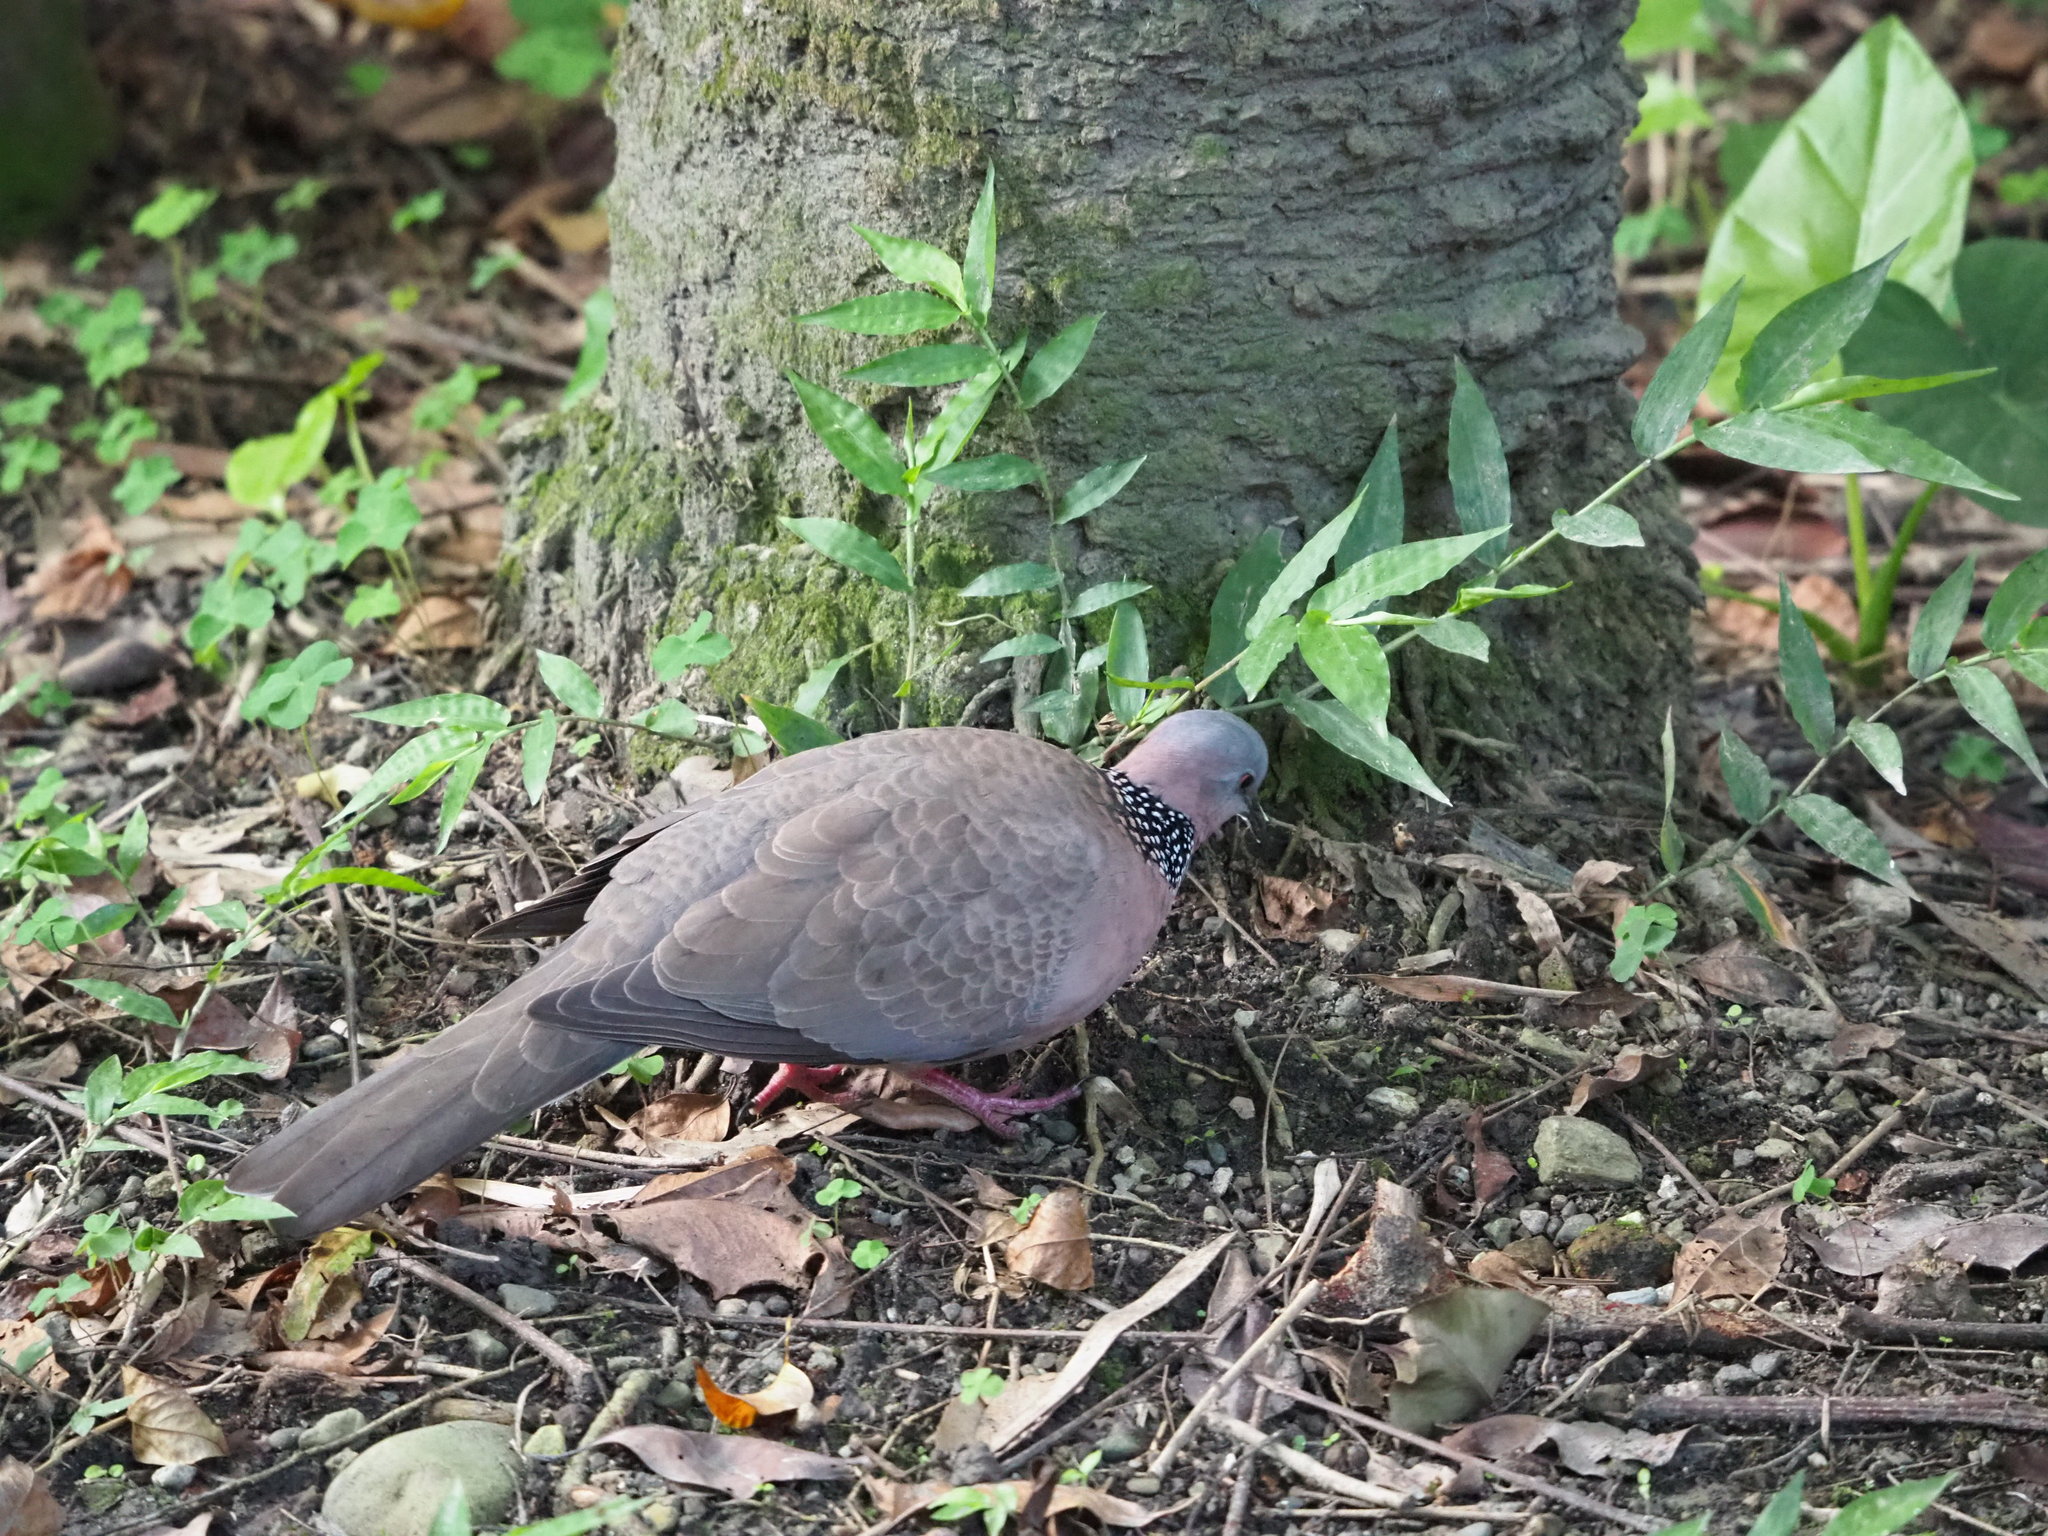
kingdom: Animalia
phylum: Chordata
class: Aves
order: Columbiformes
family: Columbidae
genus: Spilopelia
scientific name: Spilopelia chinensis
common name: Spotted dove
